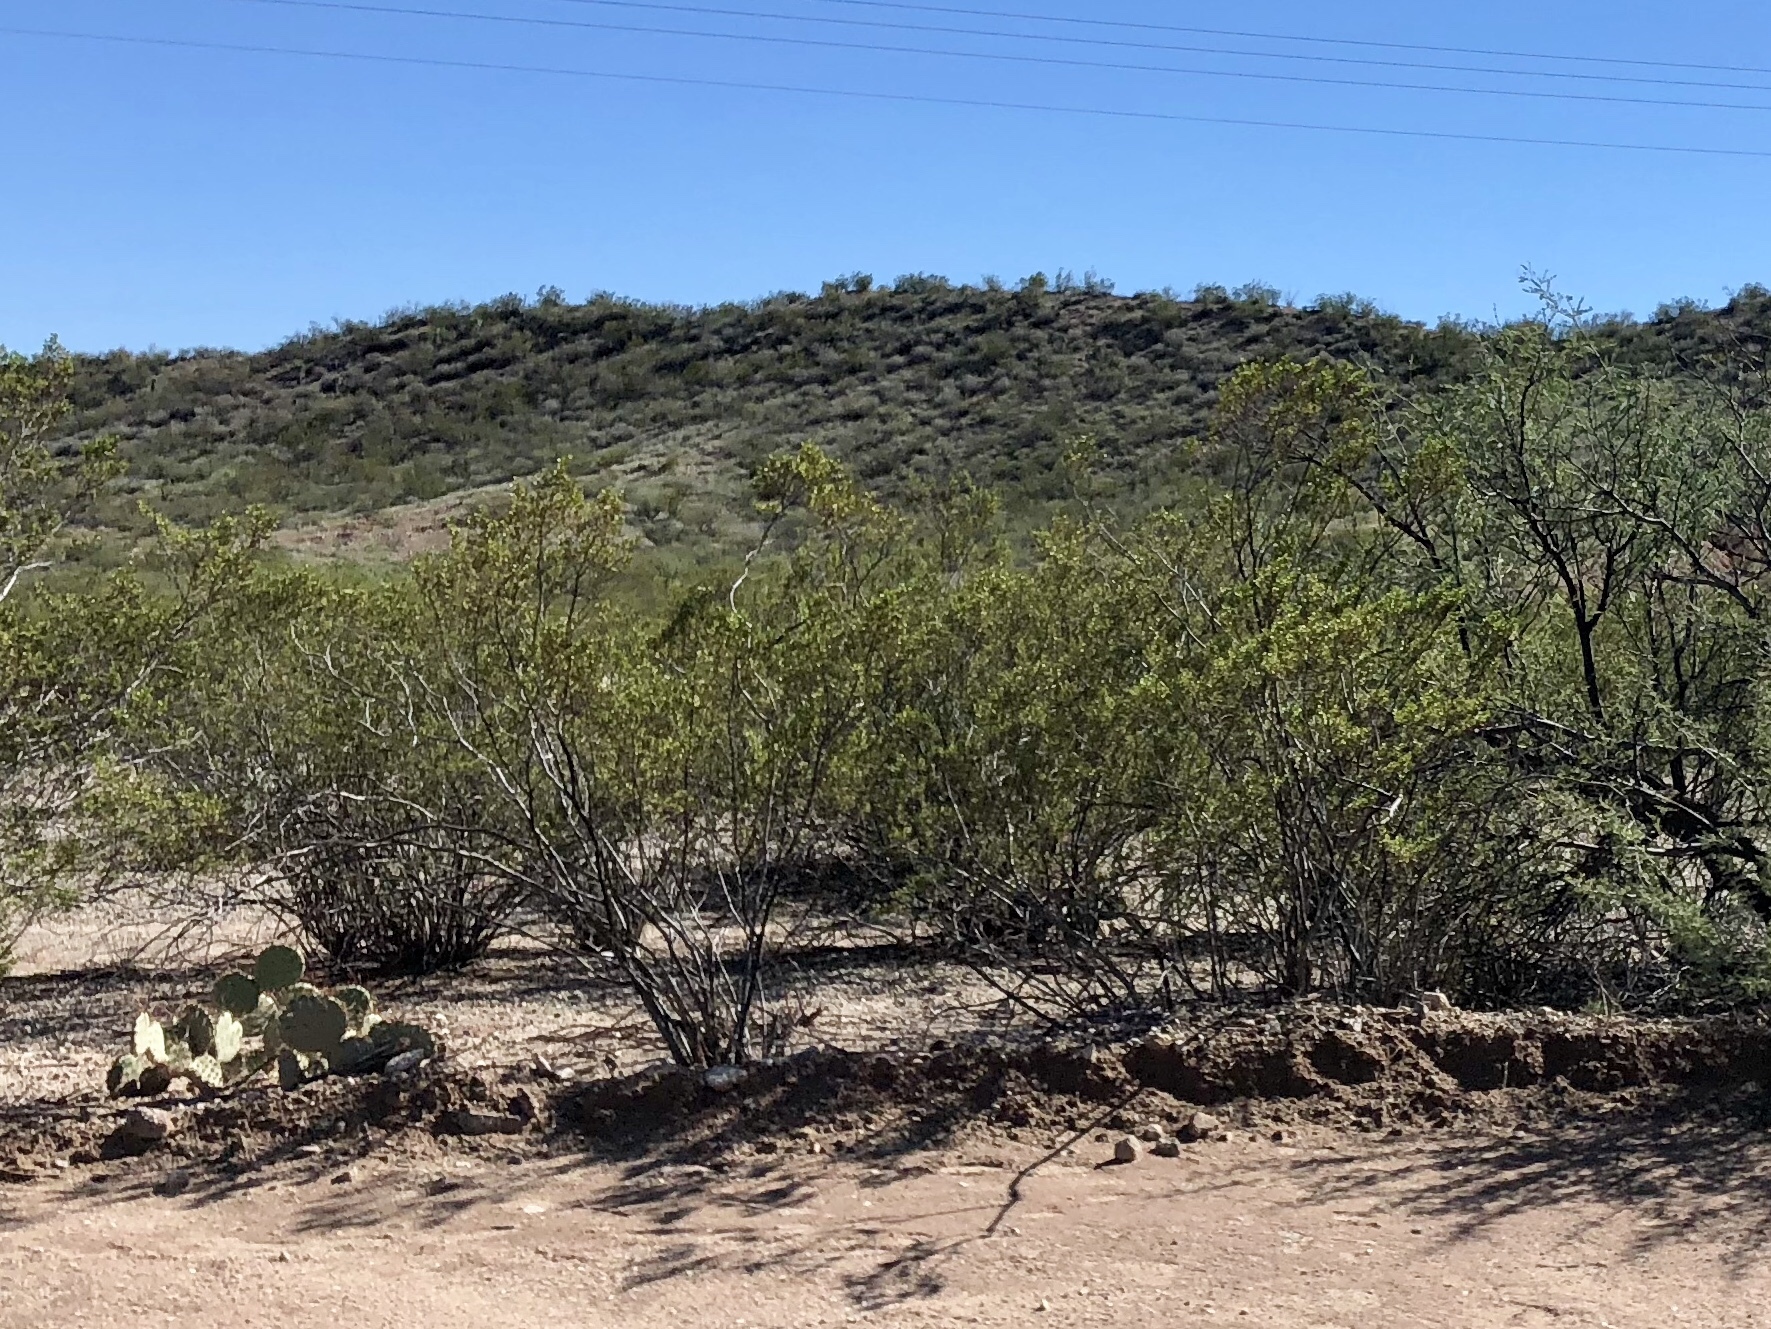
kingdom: Plantae
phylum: Tracheophyta
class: Magnoliopsida
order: Zygophyllales
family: Zygophyllaceae
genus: Larrea
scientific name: Larrea tridentata
